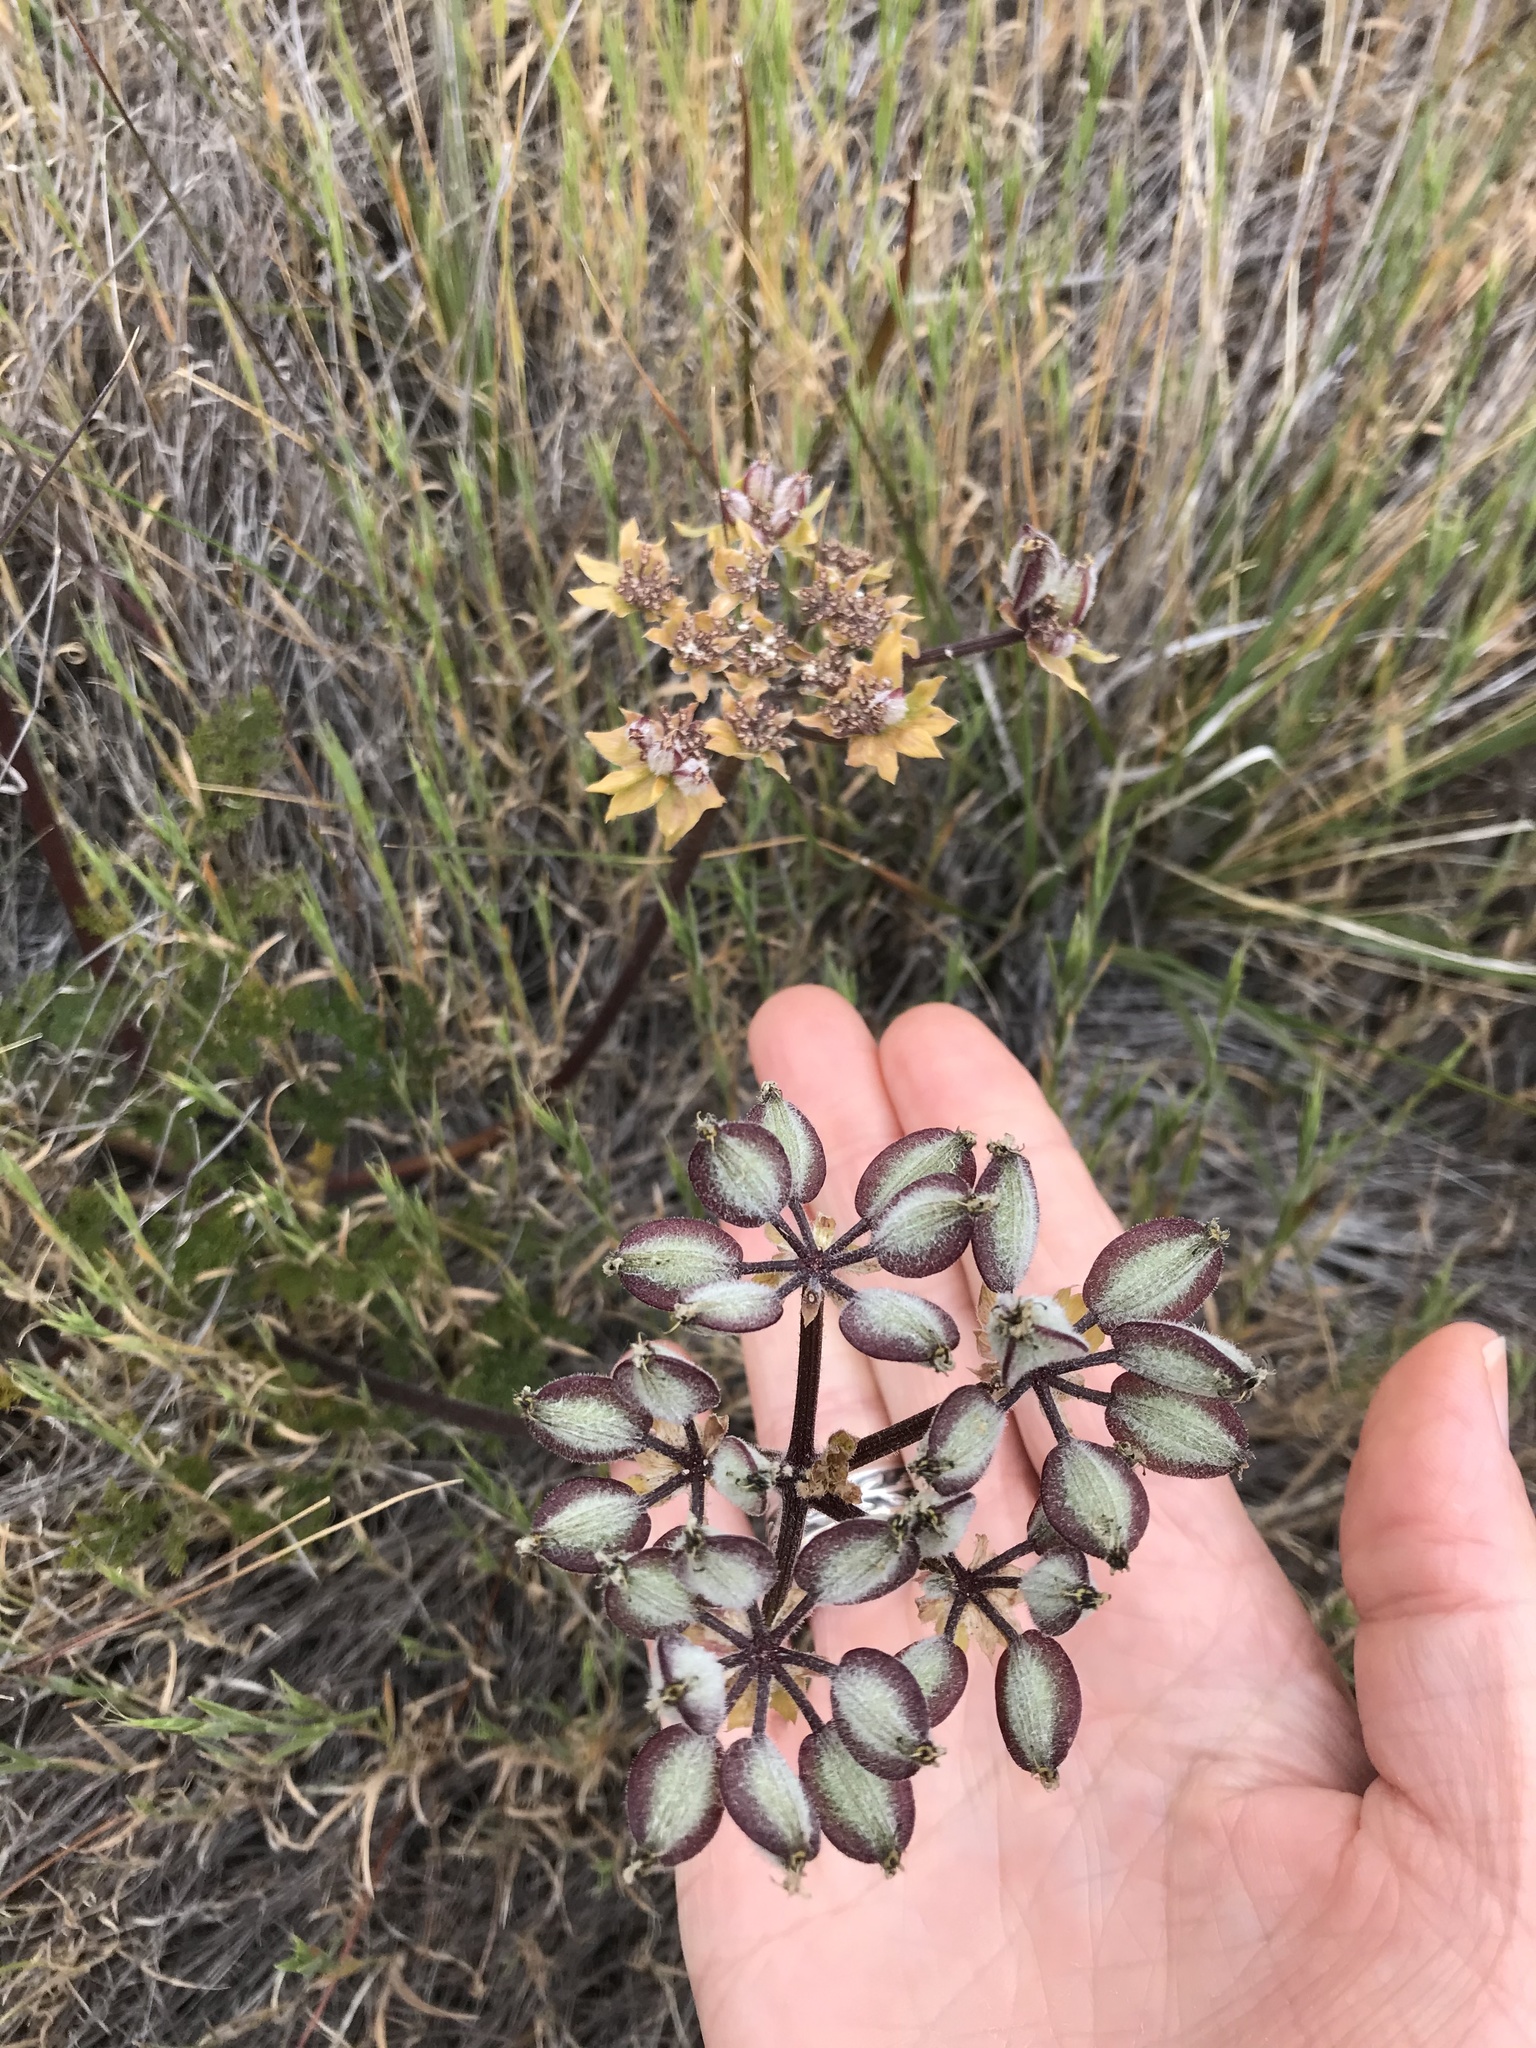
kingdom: Plantae
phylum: Tracheophyta
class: Magnoliopsida
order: Apiales
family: Apiaceae
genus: Lomatium
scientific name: Lomatium dasycarpum
